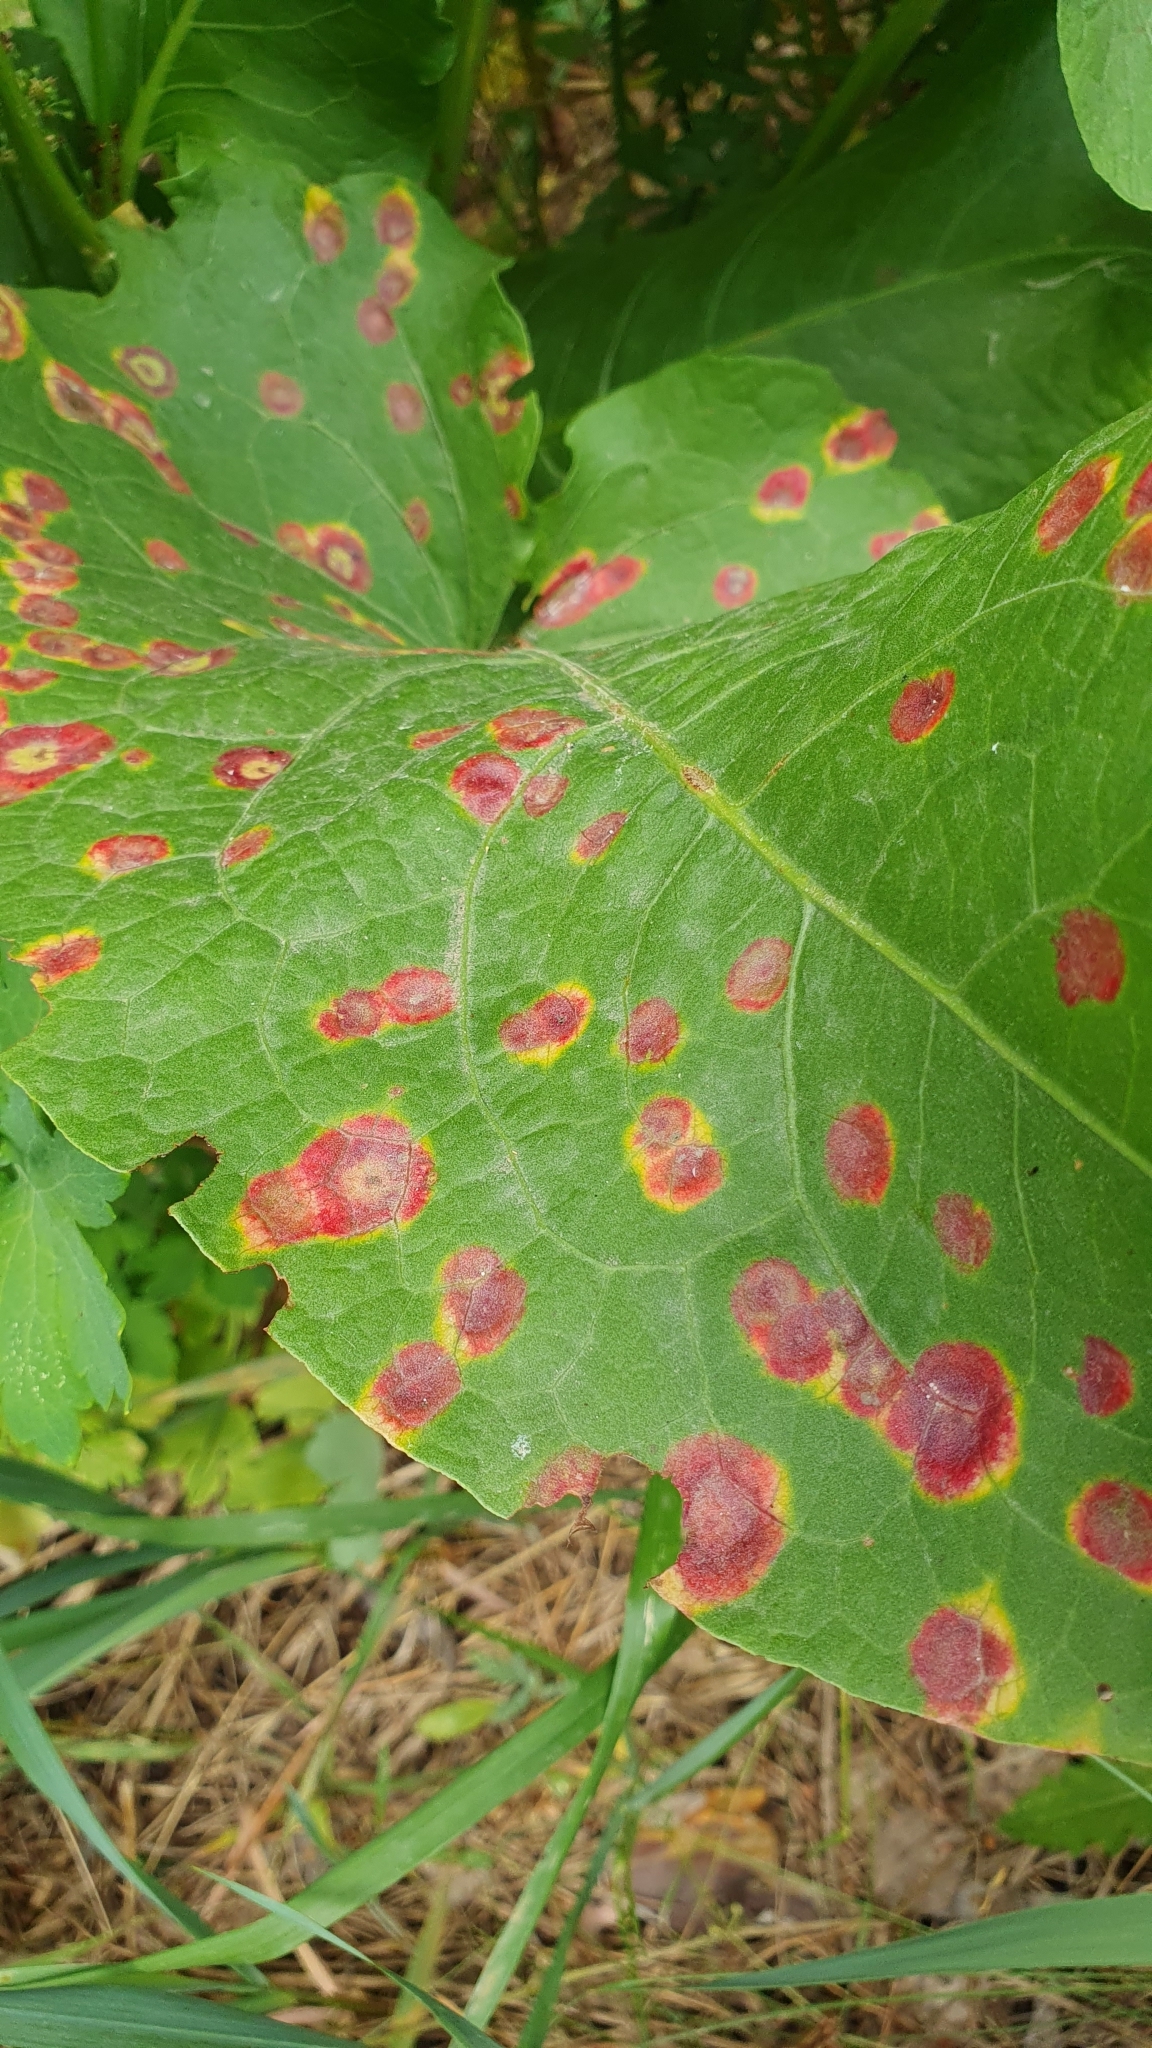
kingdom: Fungi
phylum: Basidiomycota
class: Pucciniomycetes
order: Pucciniales
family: Pucciniaceae
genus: Puccinia
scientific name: Puccinia phragmitis
